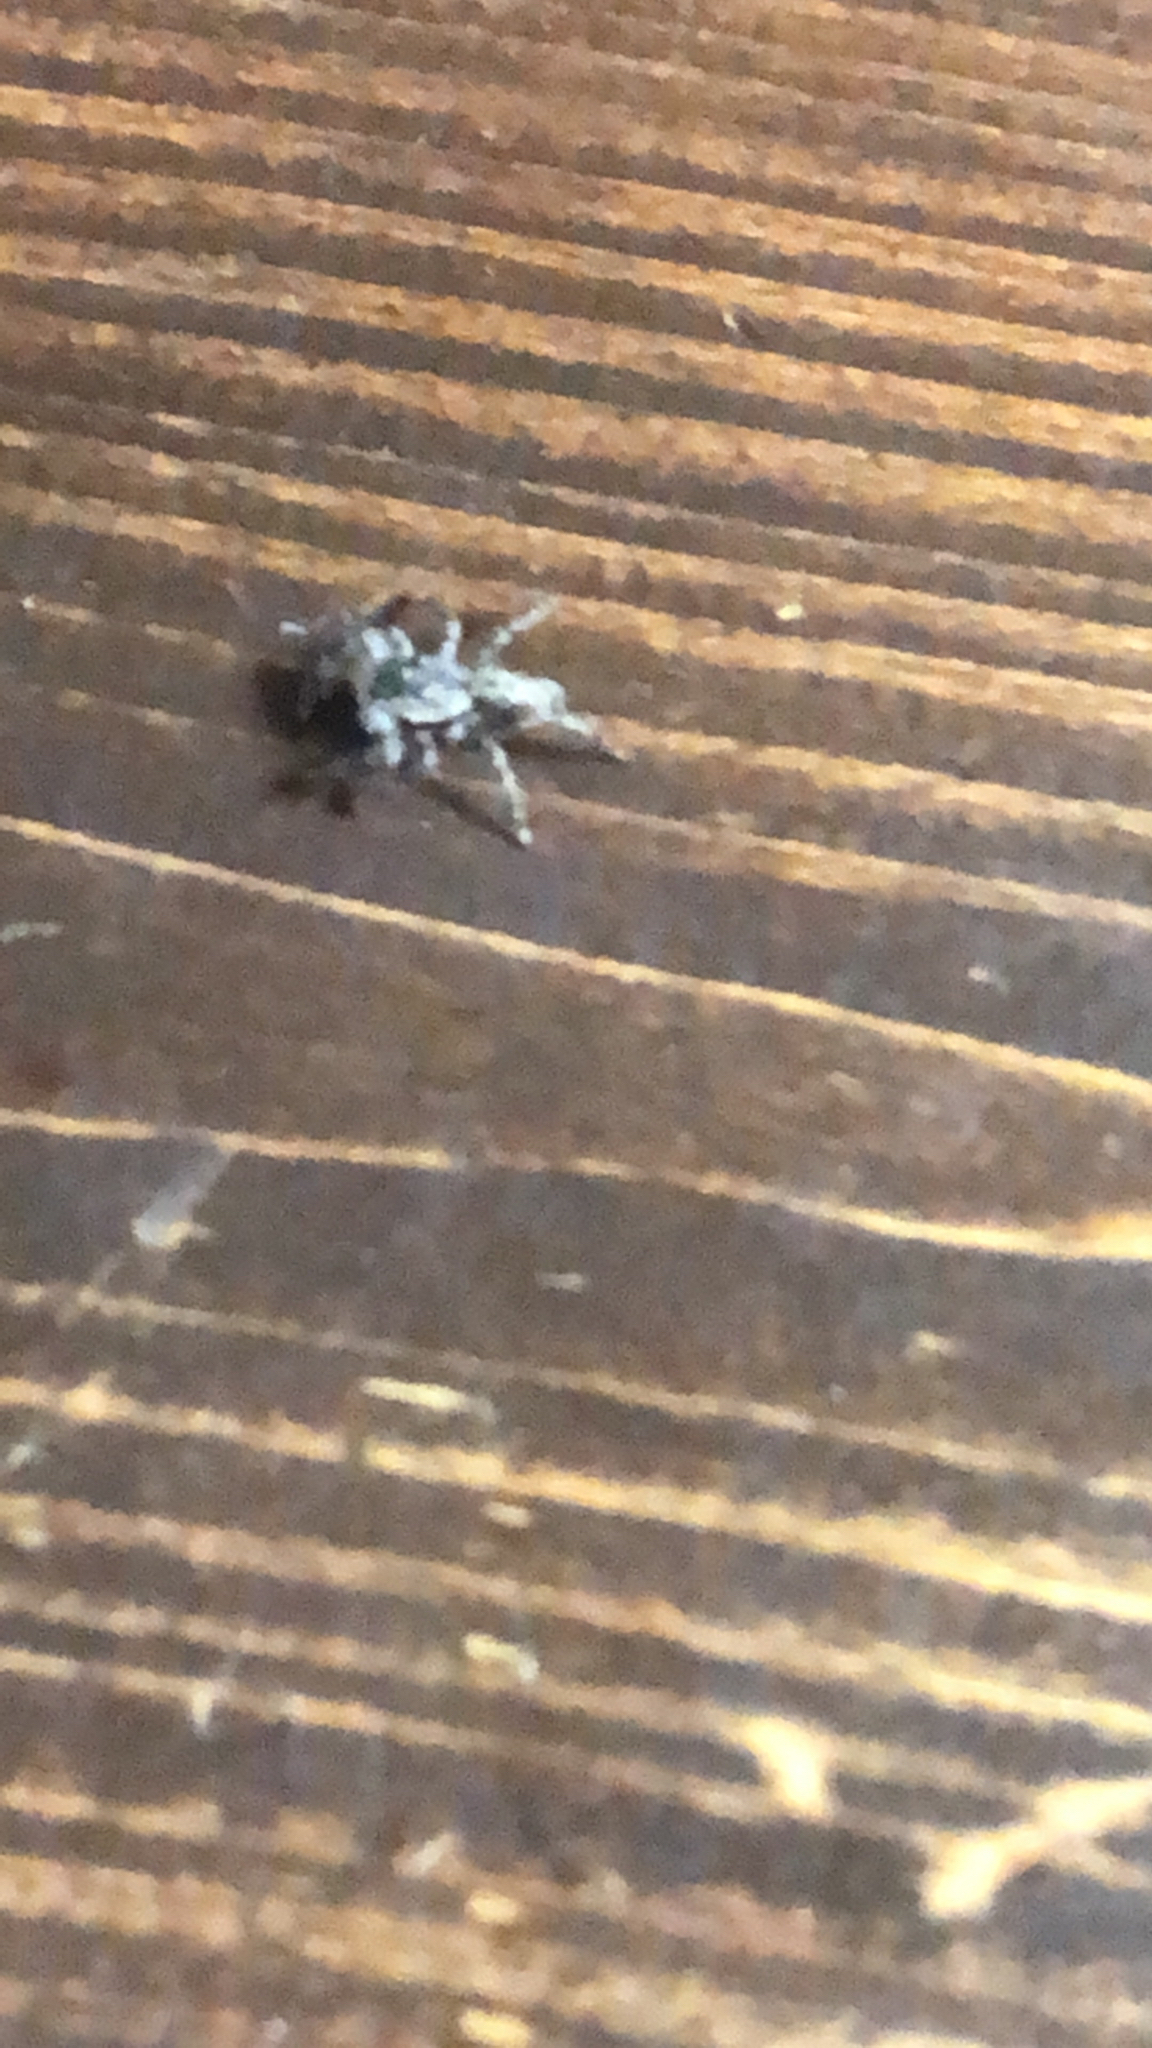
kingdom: Animalia
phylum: Arthropoda
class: Arachnida
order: Araneae
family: Salticidae
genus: Platycryptus
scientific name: Platycryptus undatus
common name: Tan jumping spider
